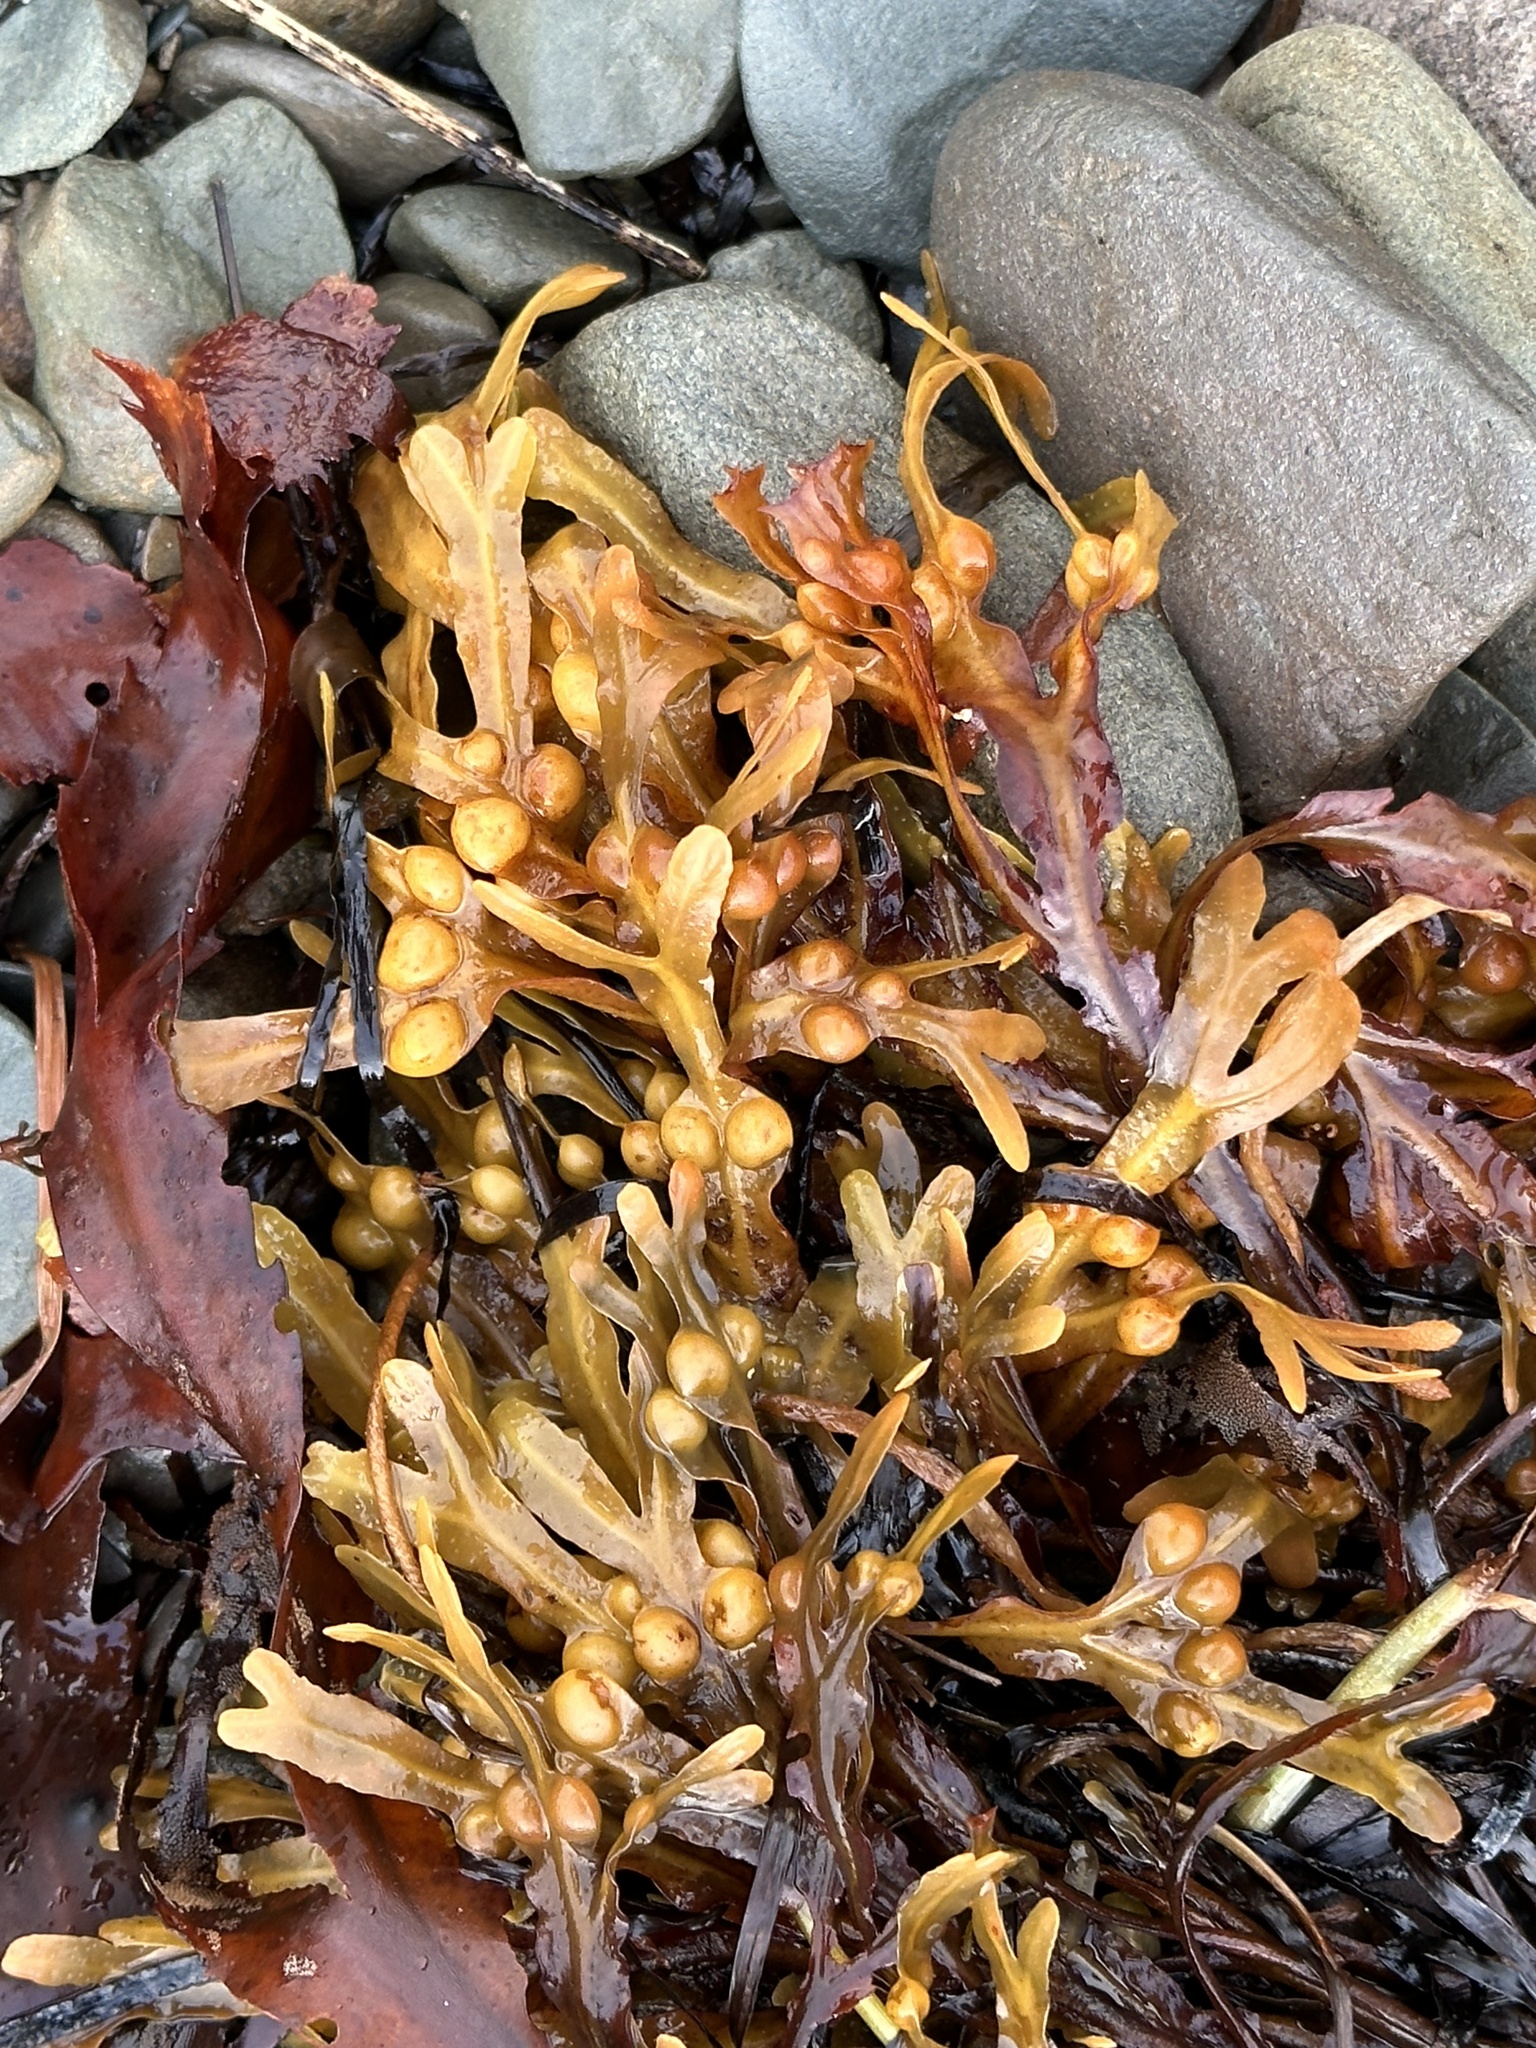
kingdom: Chromista
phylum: Ochrophyta
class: Phaeophyceae
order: Fucales
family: Fucaceae
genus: Fucus
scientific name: Fucus vesiculosus
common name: Bladder wrack
